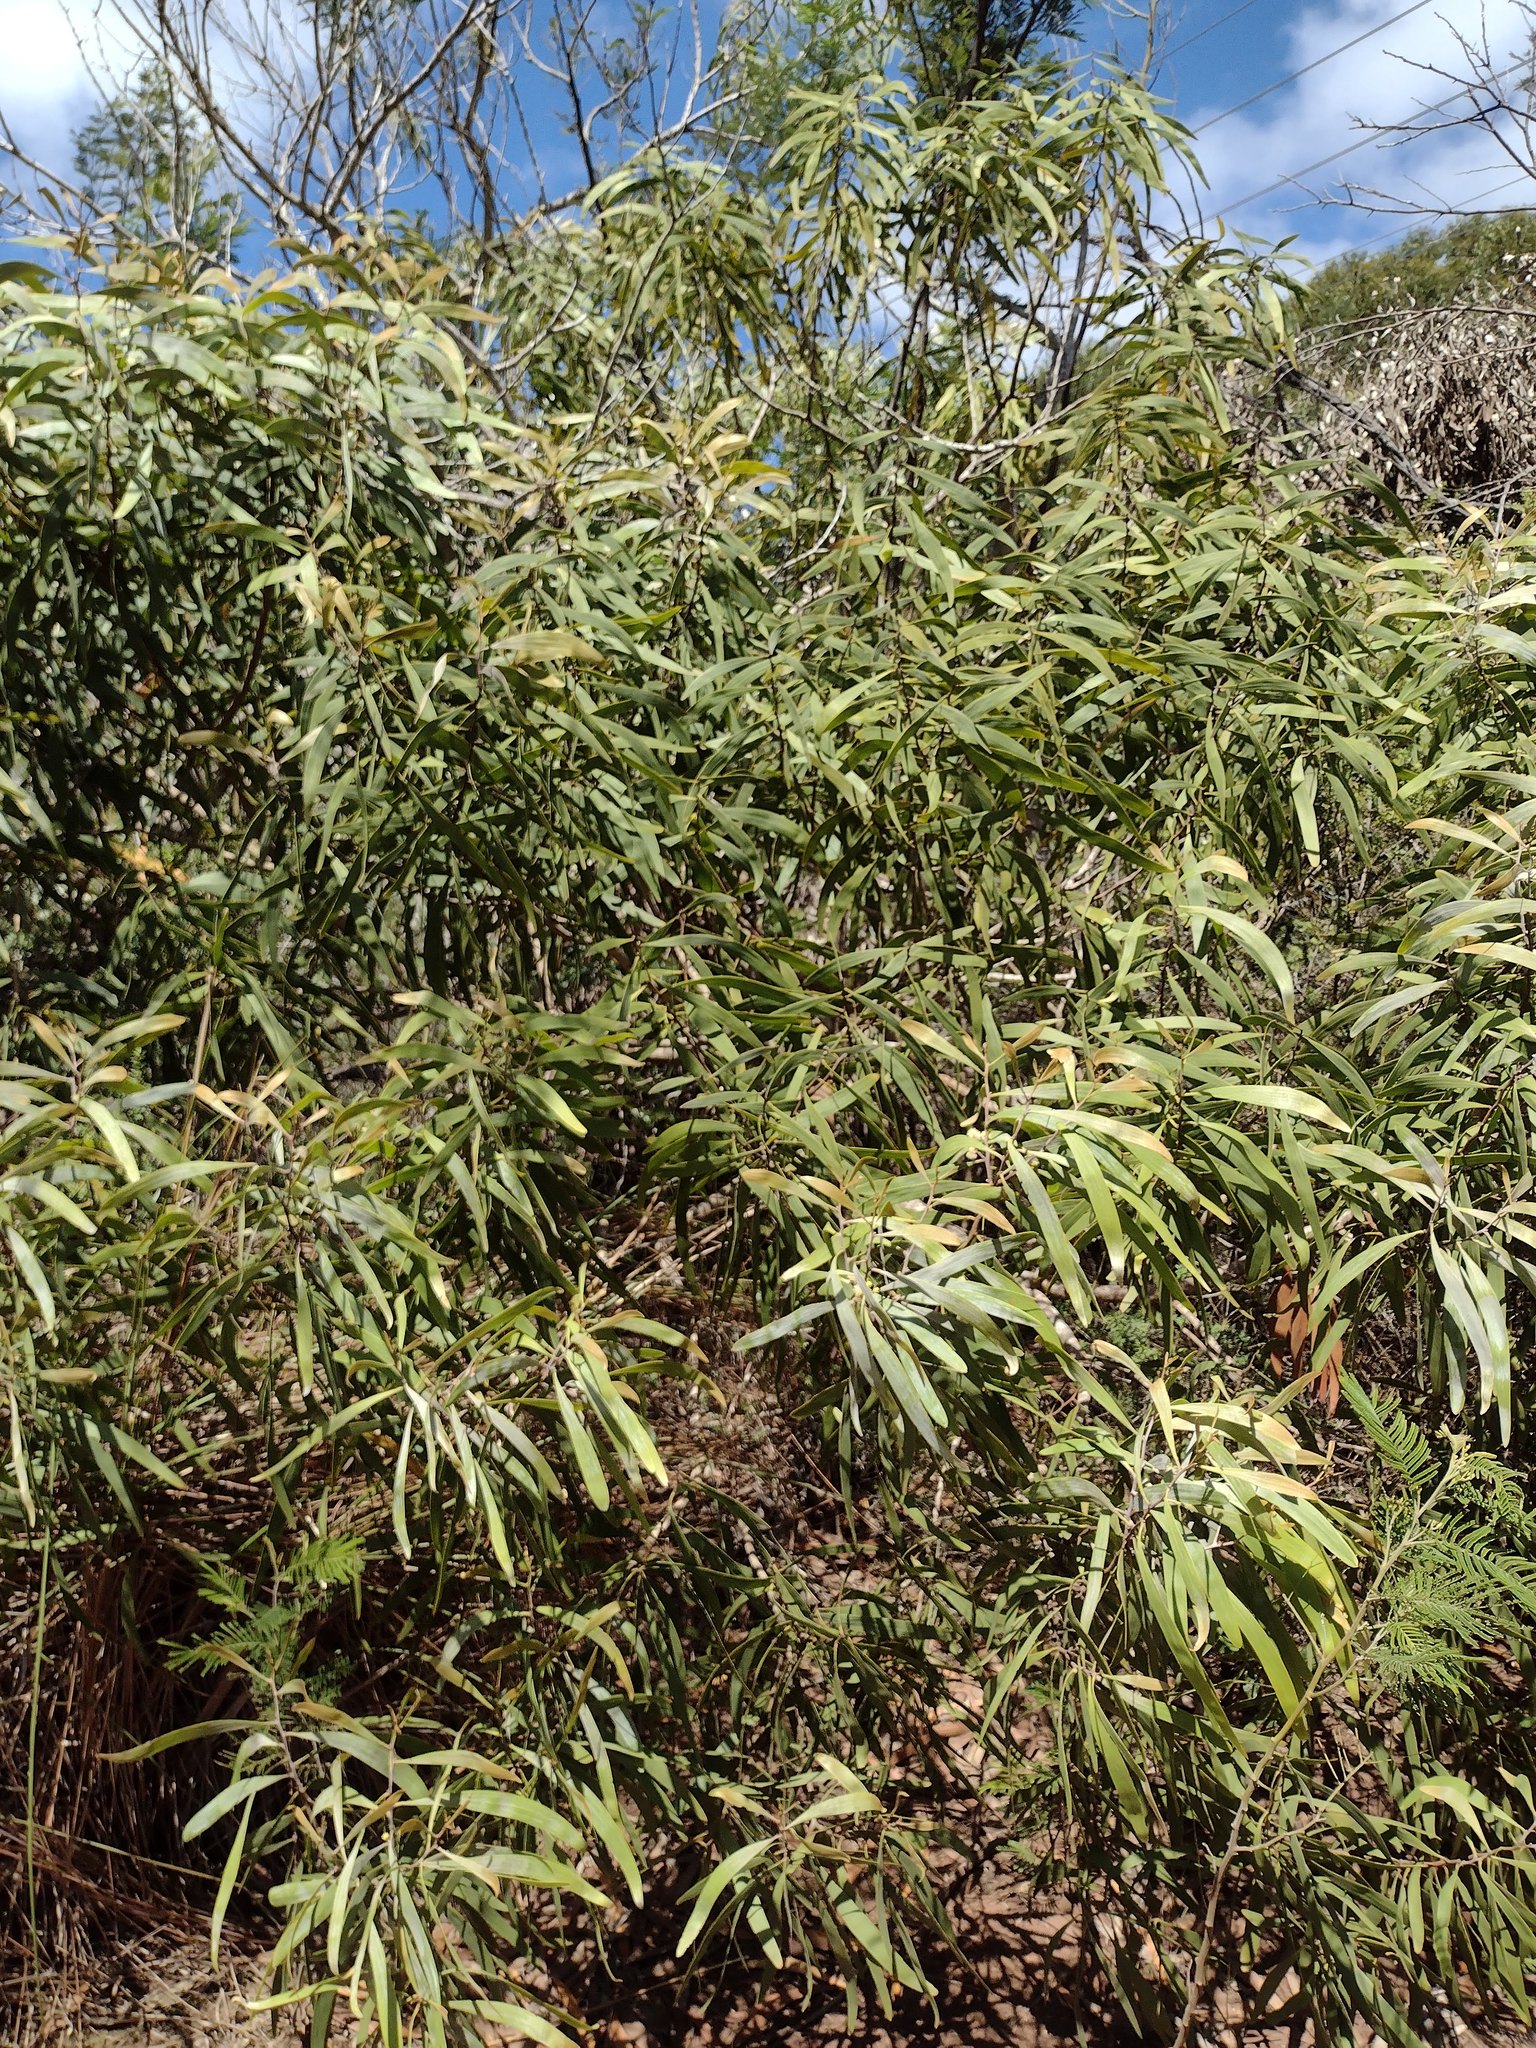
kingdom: Plantae
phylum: Tracheophyta
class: Magnoliopsida
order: Fabales
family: Fabaceae
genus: Acacia
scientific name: Acacia koa
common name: Gray koa
